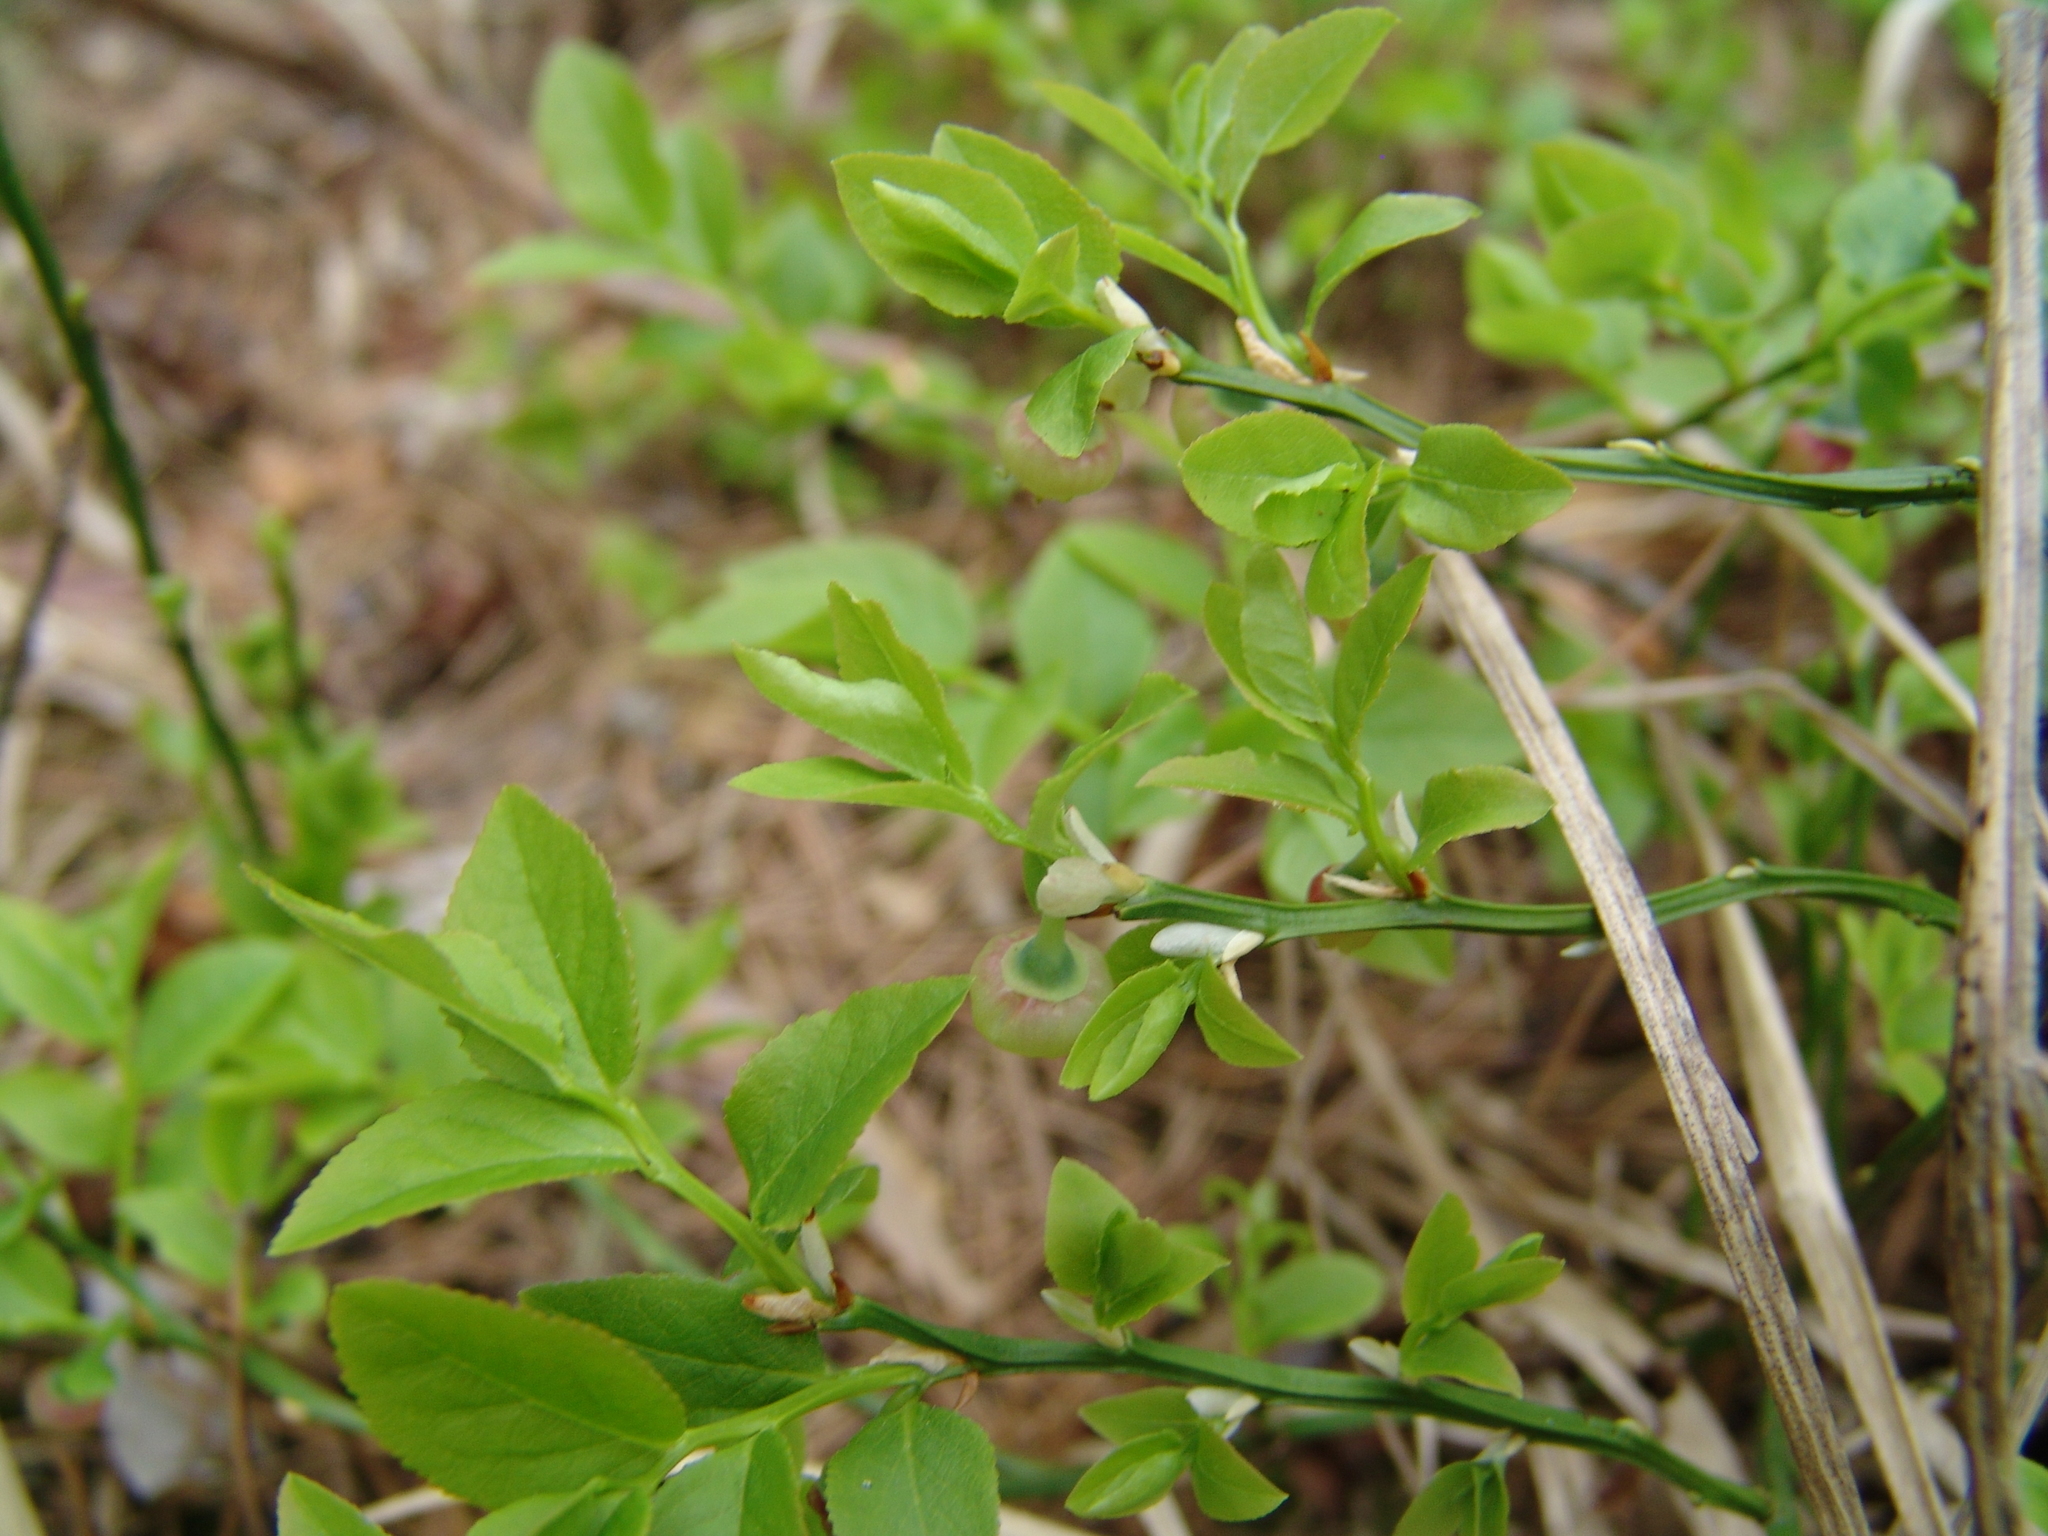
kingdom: Plantae
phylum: Tracheophyta
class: Magnoliopsida
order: Ericales
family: Ericaceae
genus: Vaccinium
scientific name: Vaccinium myrtillus
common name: Bilberry
